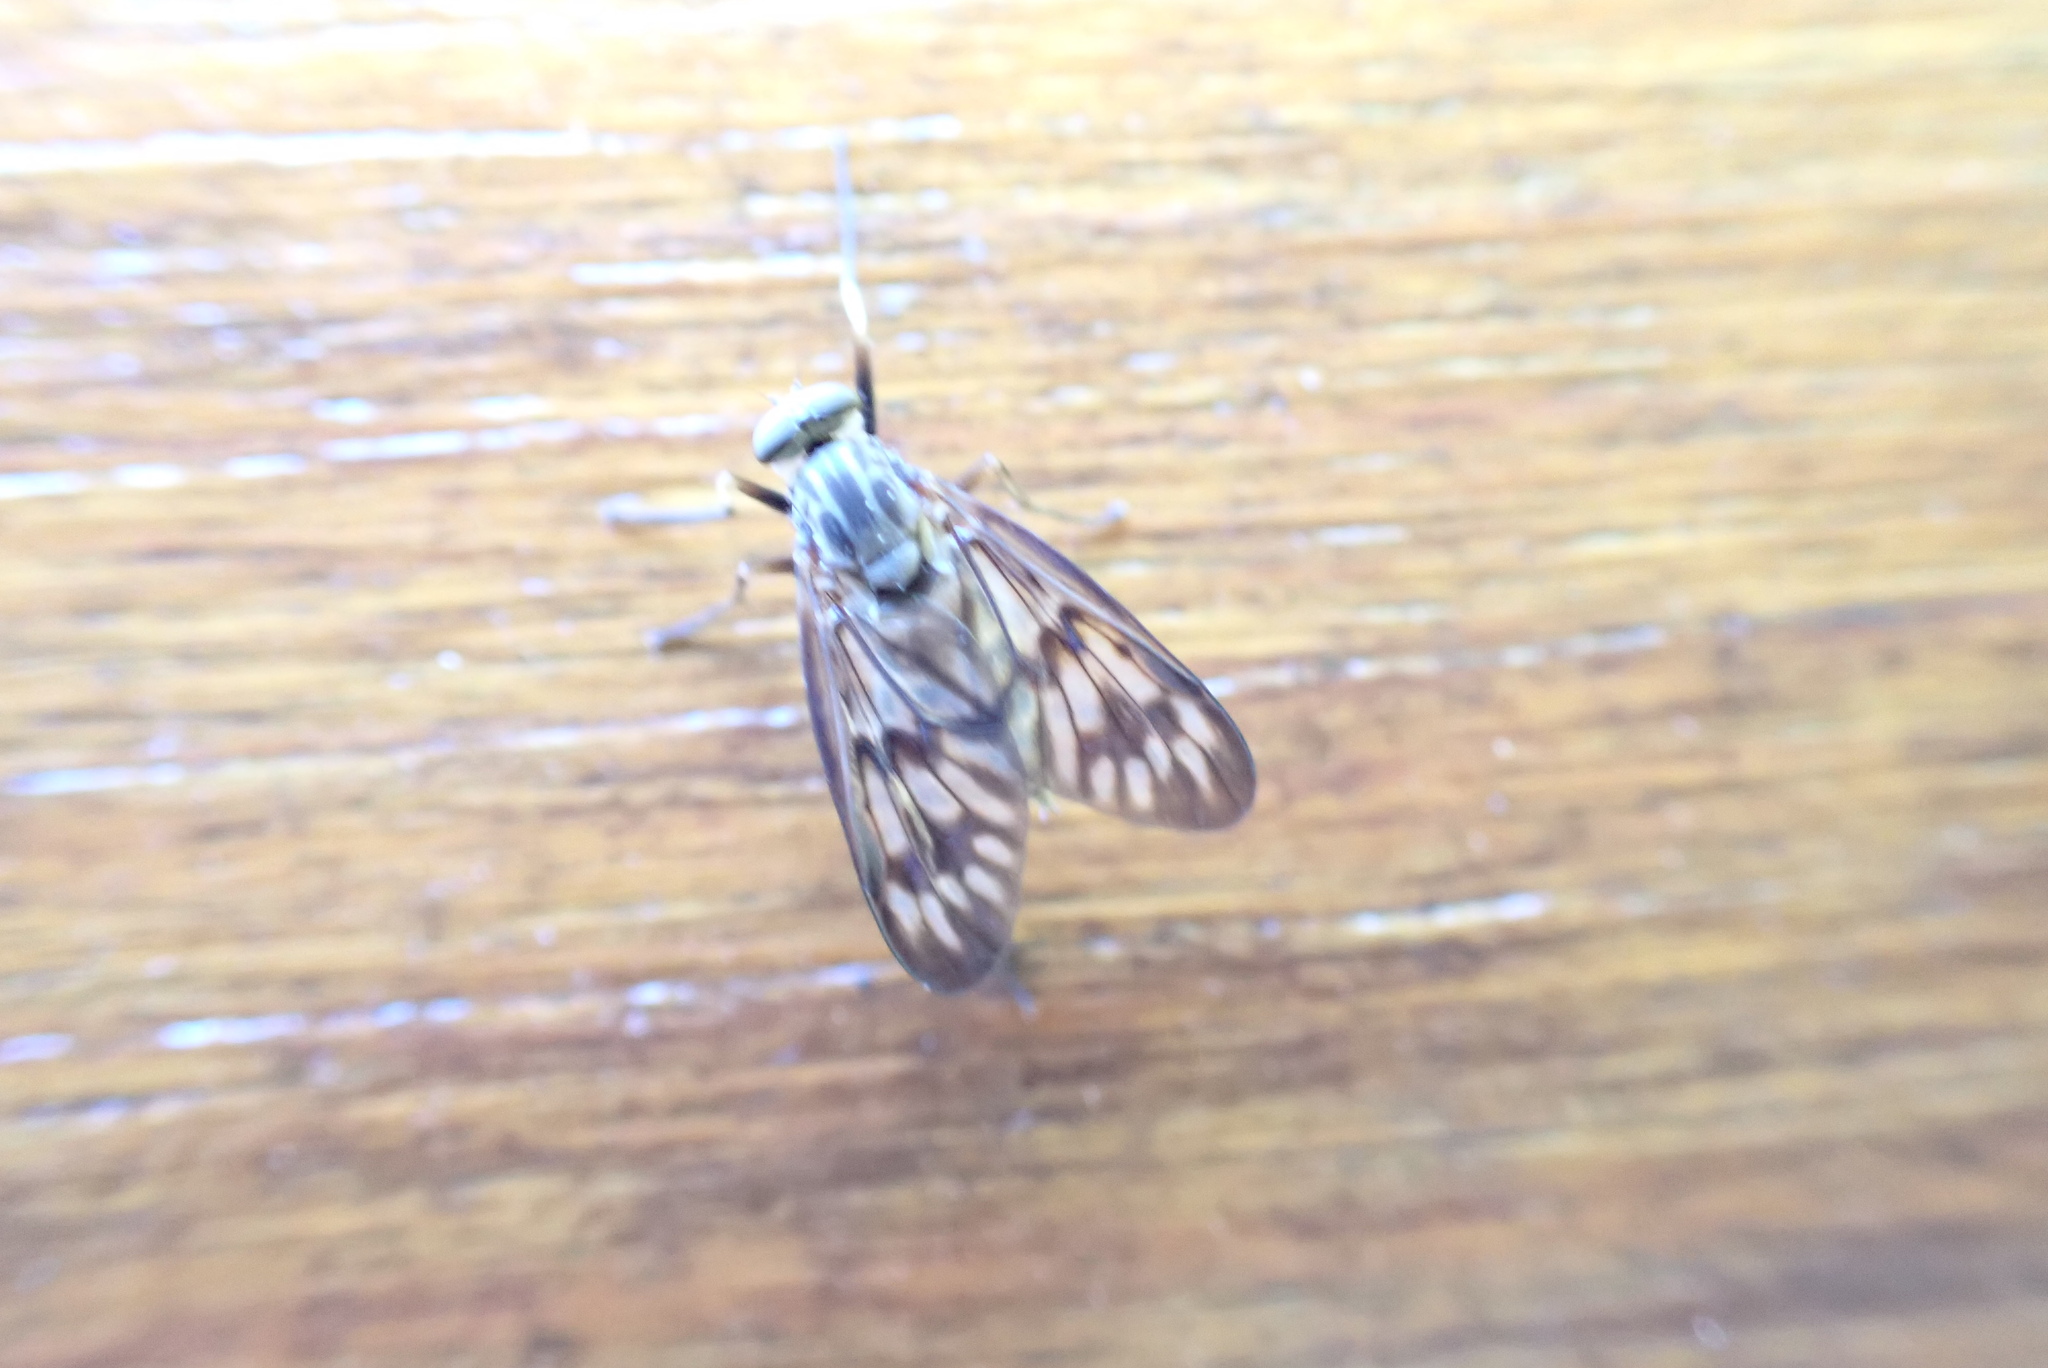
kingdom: Animalia
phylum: Arthropoda
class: Insecta
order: Diptera
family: Rhagionidae
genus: Rhagio
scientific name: Rhagio mystaceus
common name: Common snipe fly
